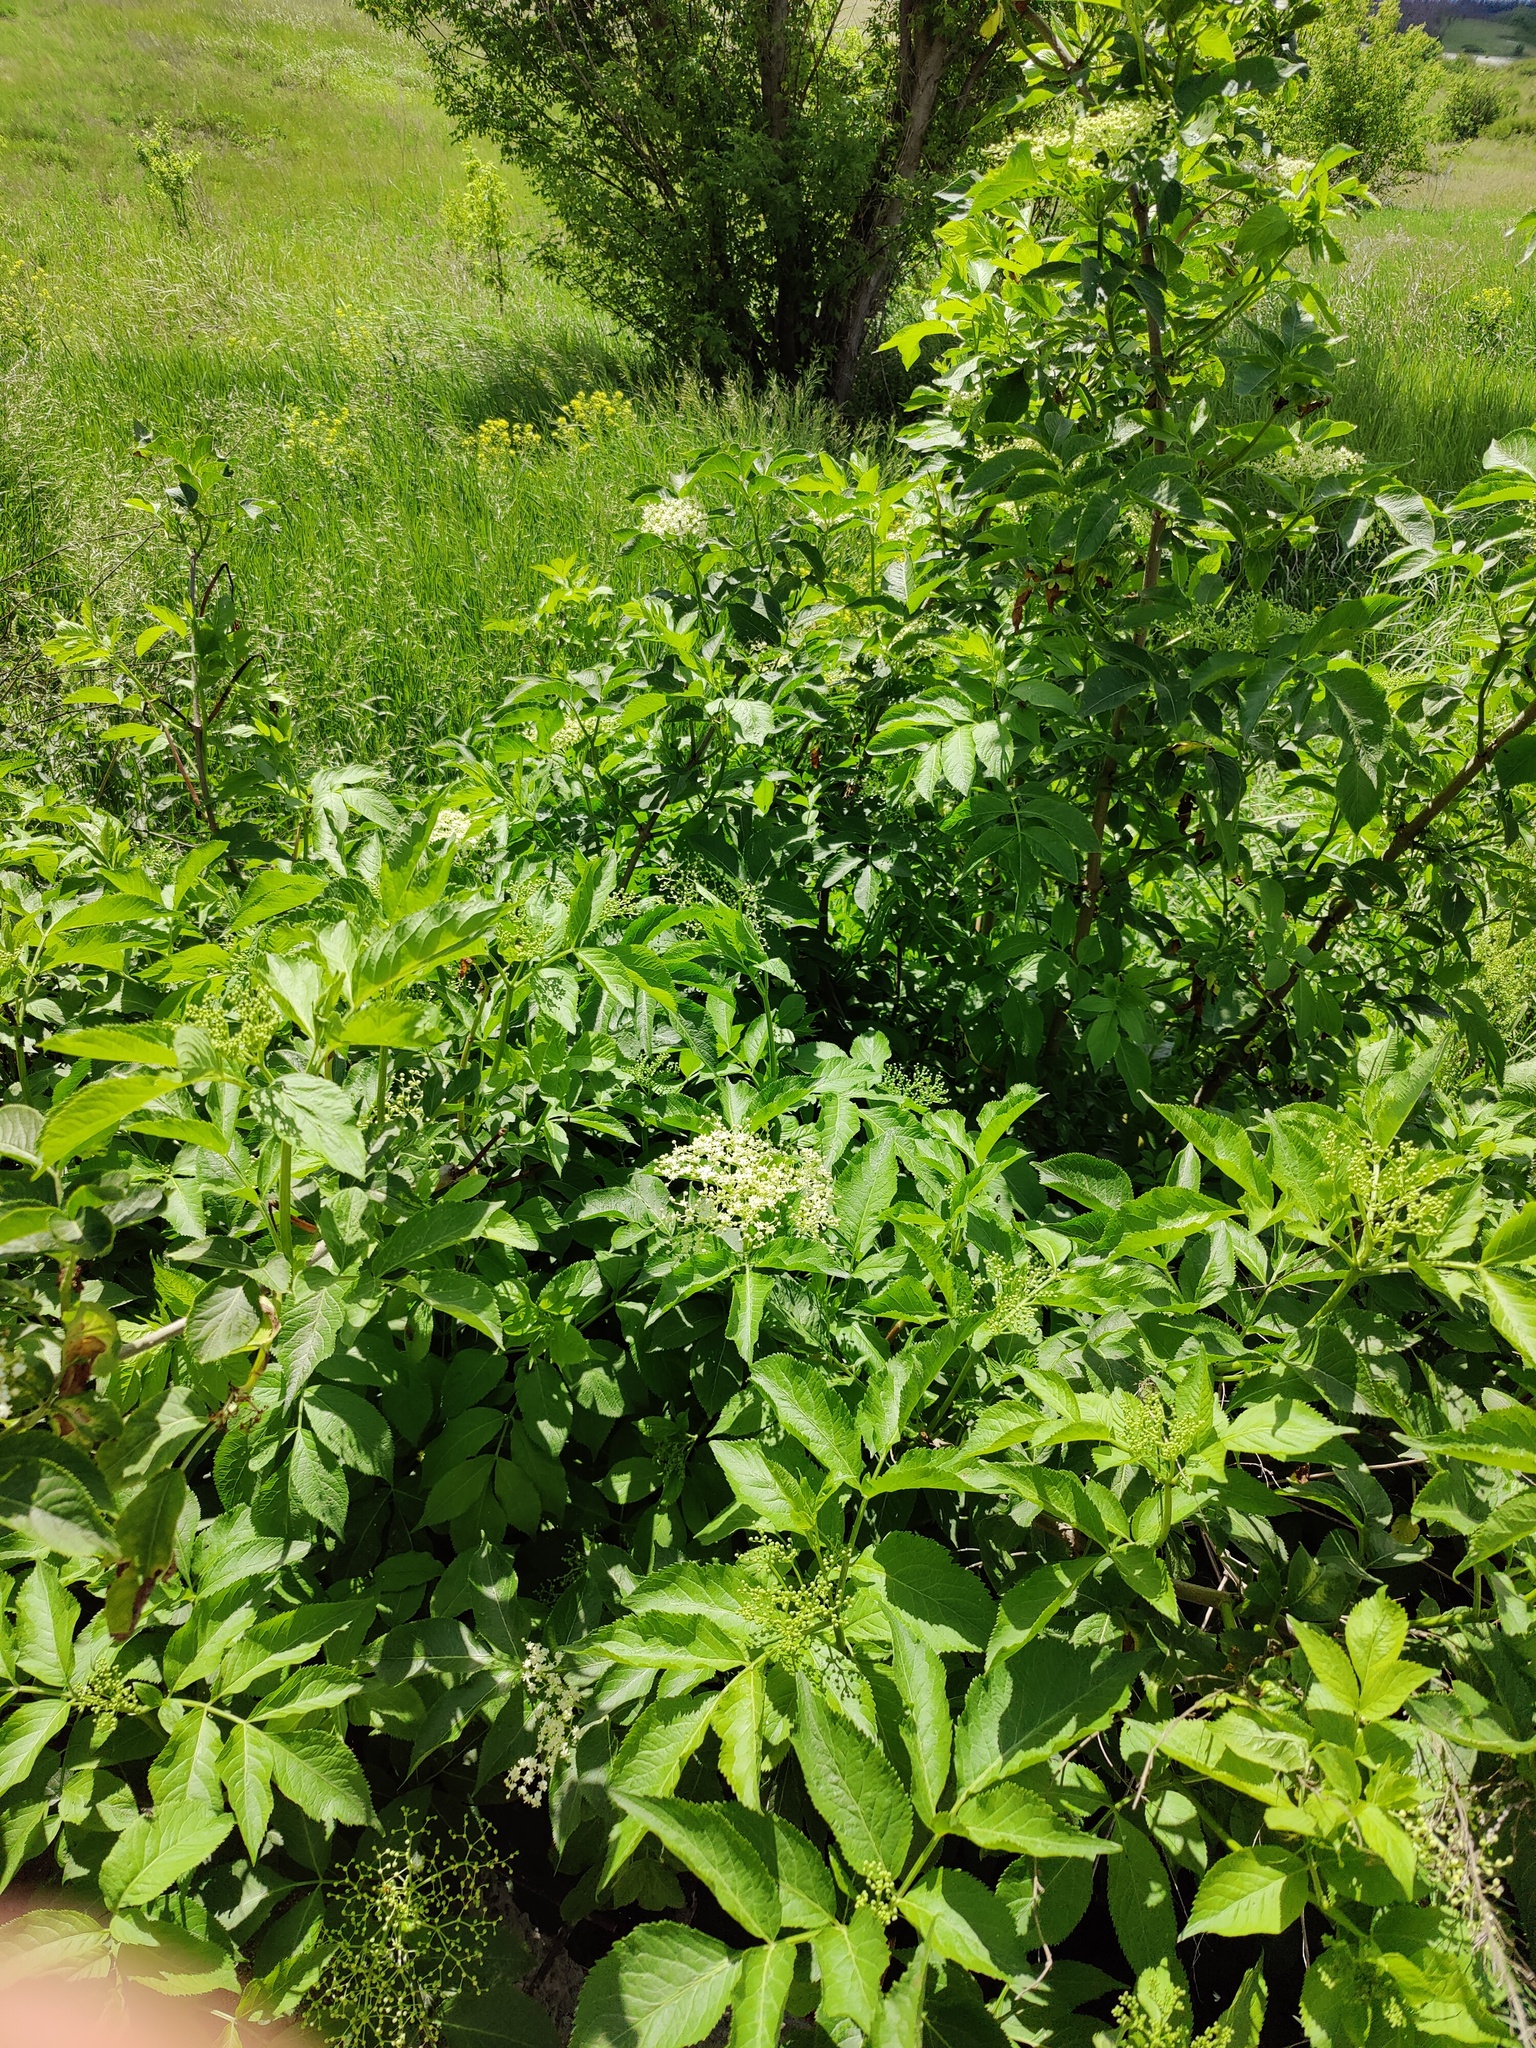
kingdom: Plantae
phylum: Tracheophyta
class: Magnoliopsida
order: Dipsacales
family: Viburnaceae
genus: Sambucus
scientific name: Sambucus nigra
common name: Elder
